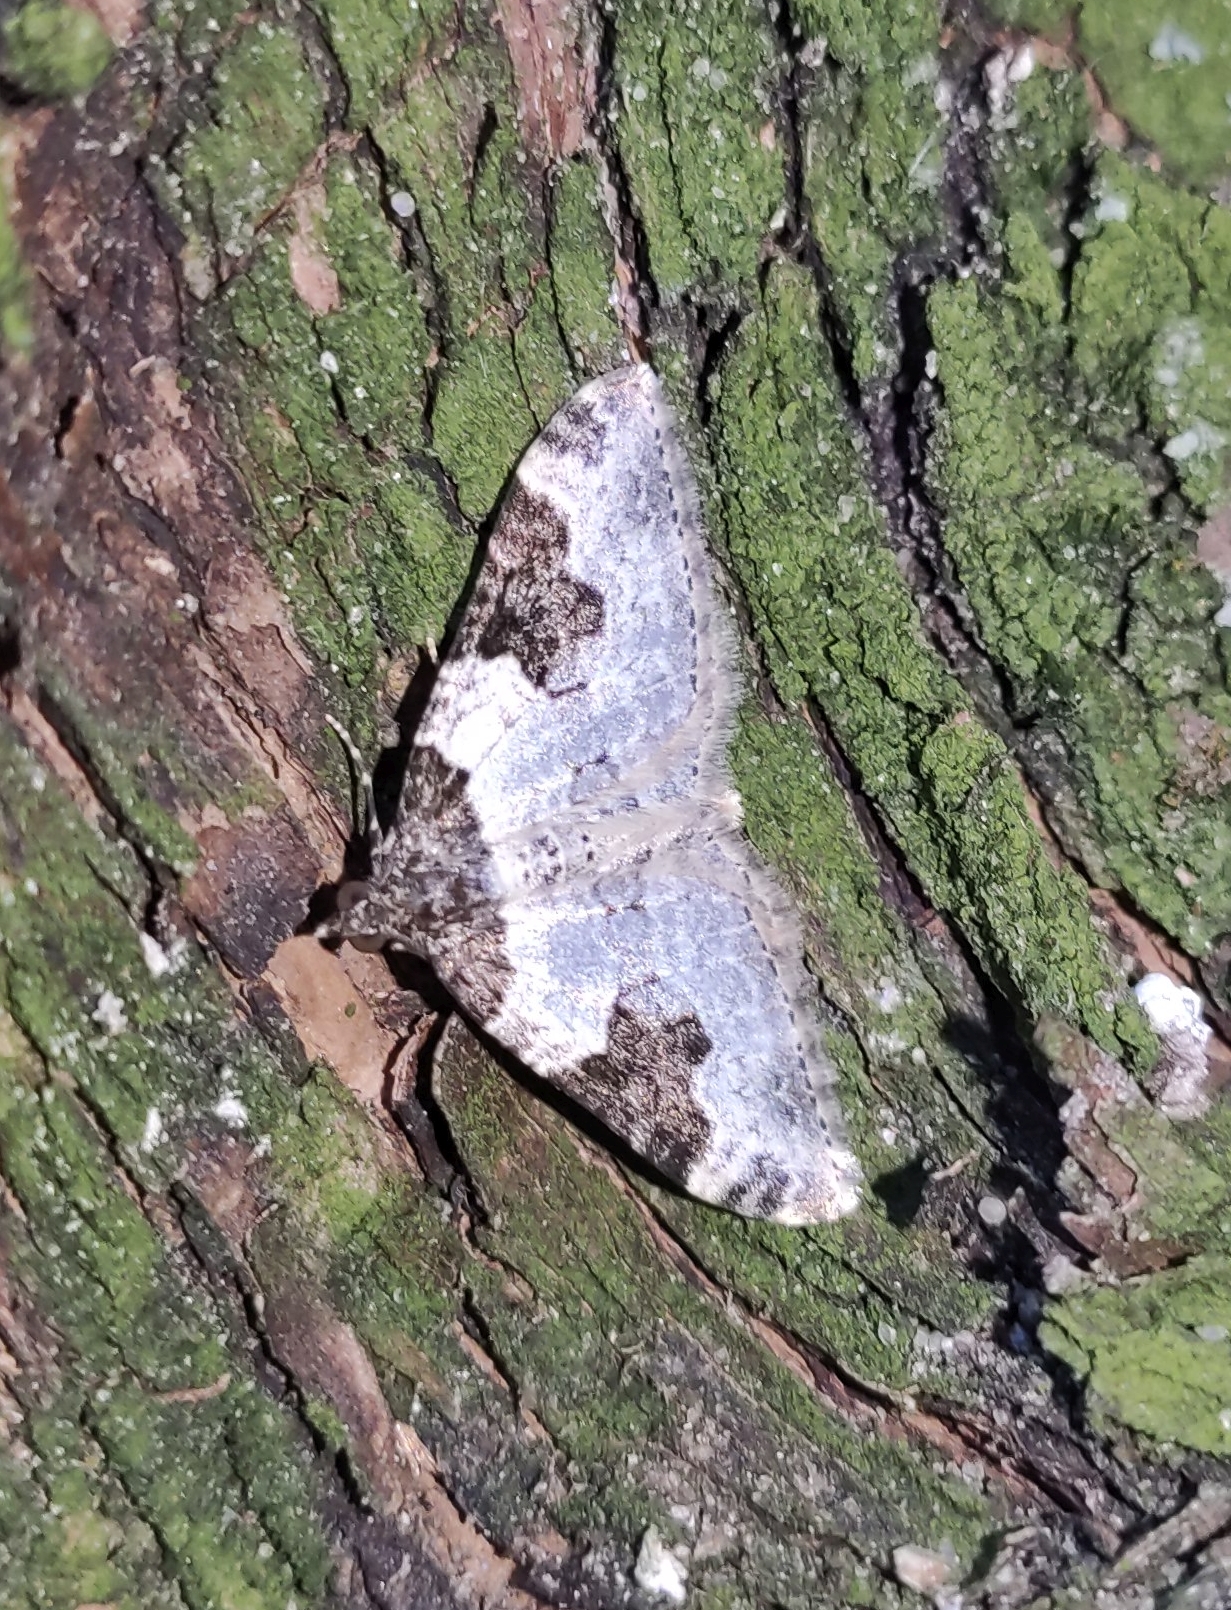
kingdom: Animalia
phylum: Arthropoda
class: Insecta
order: Lepidoptera
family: Geometridae
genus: Xanthorhoe
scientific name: Xanthorhoe fluctuata
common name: Garden carpet
